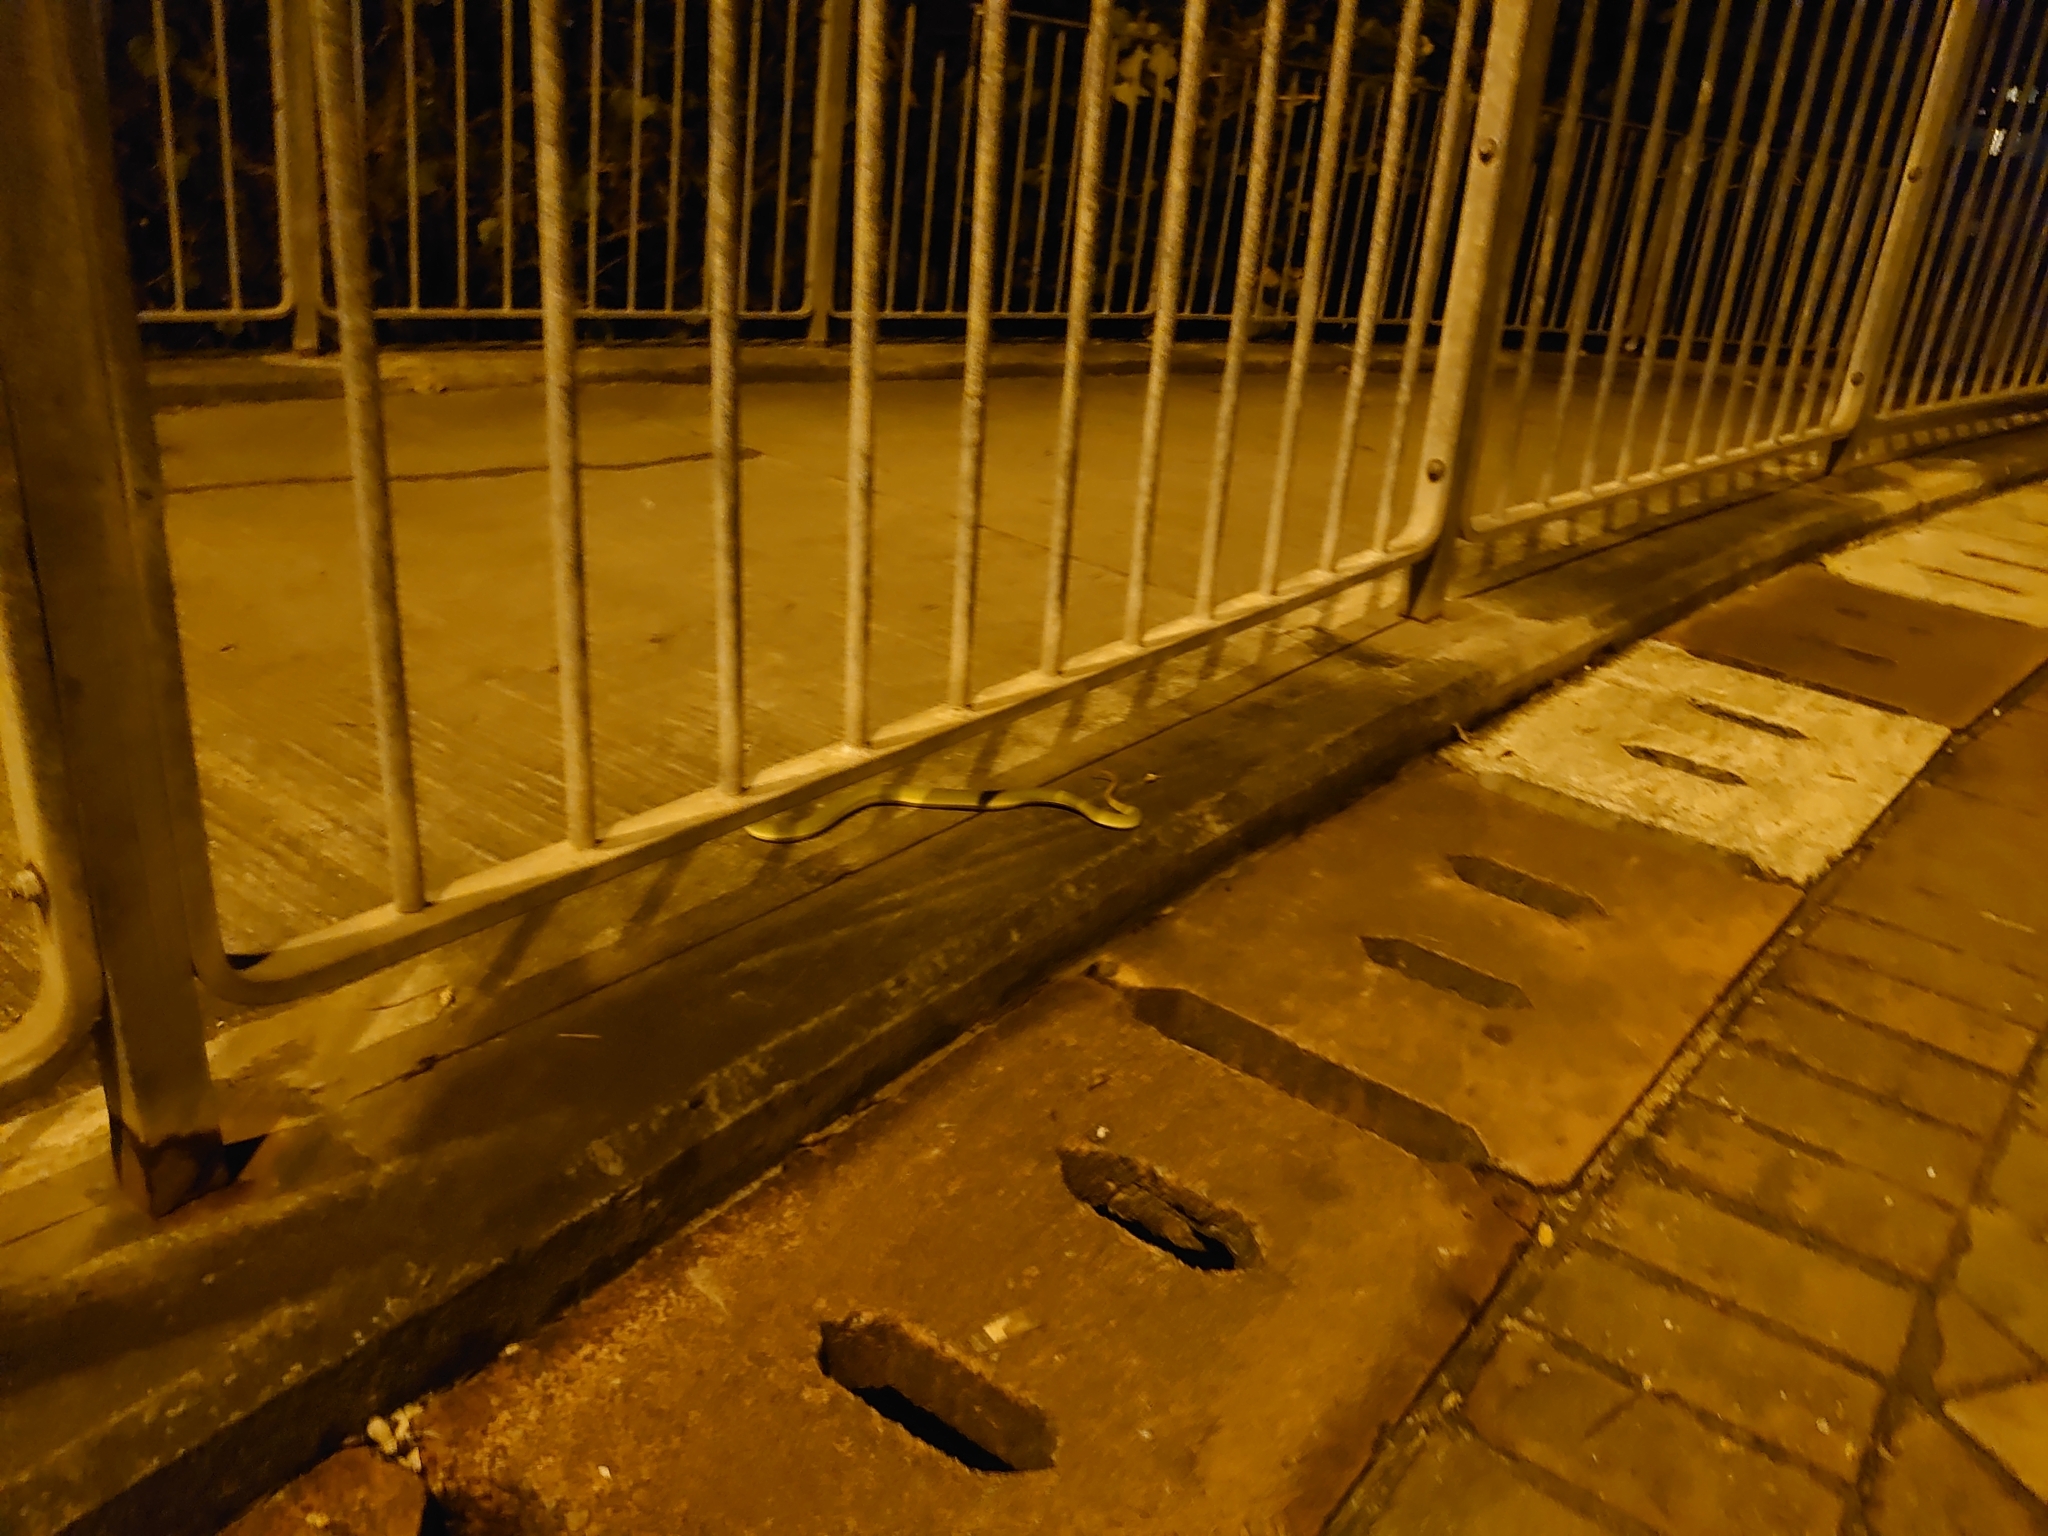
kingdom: Animalia
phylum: Chordata
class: Squamata
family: Viperidae
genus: Trimeresurus
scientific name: Trimeresurus albolabris
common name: White-lipped pitviper
